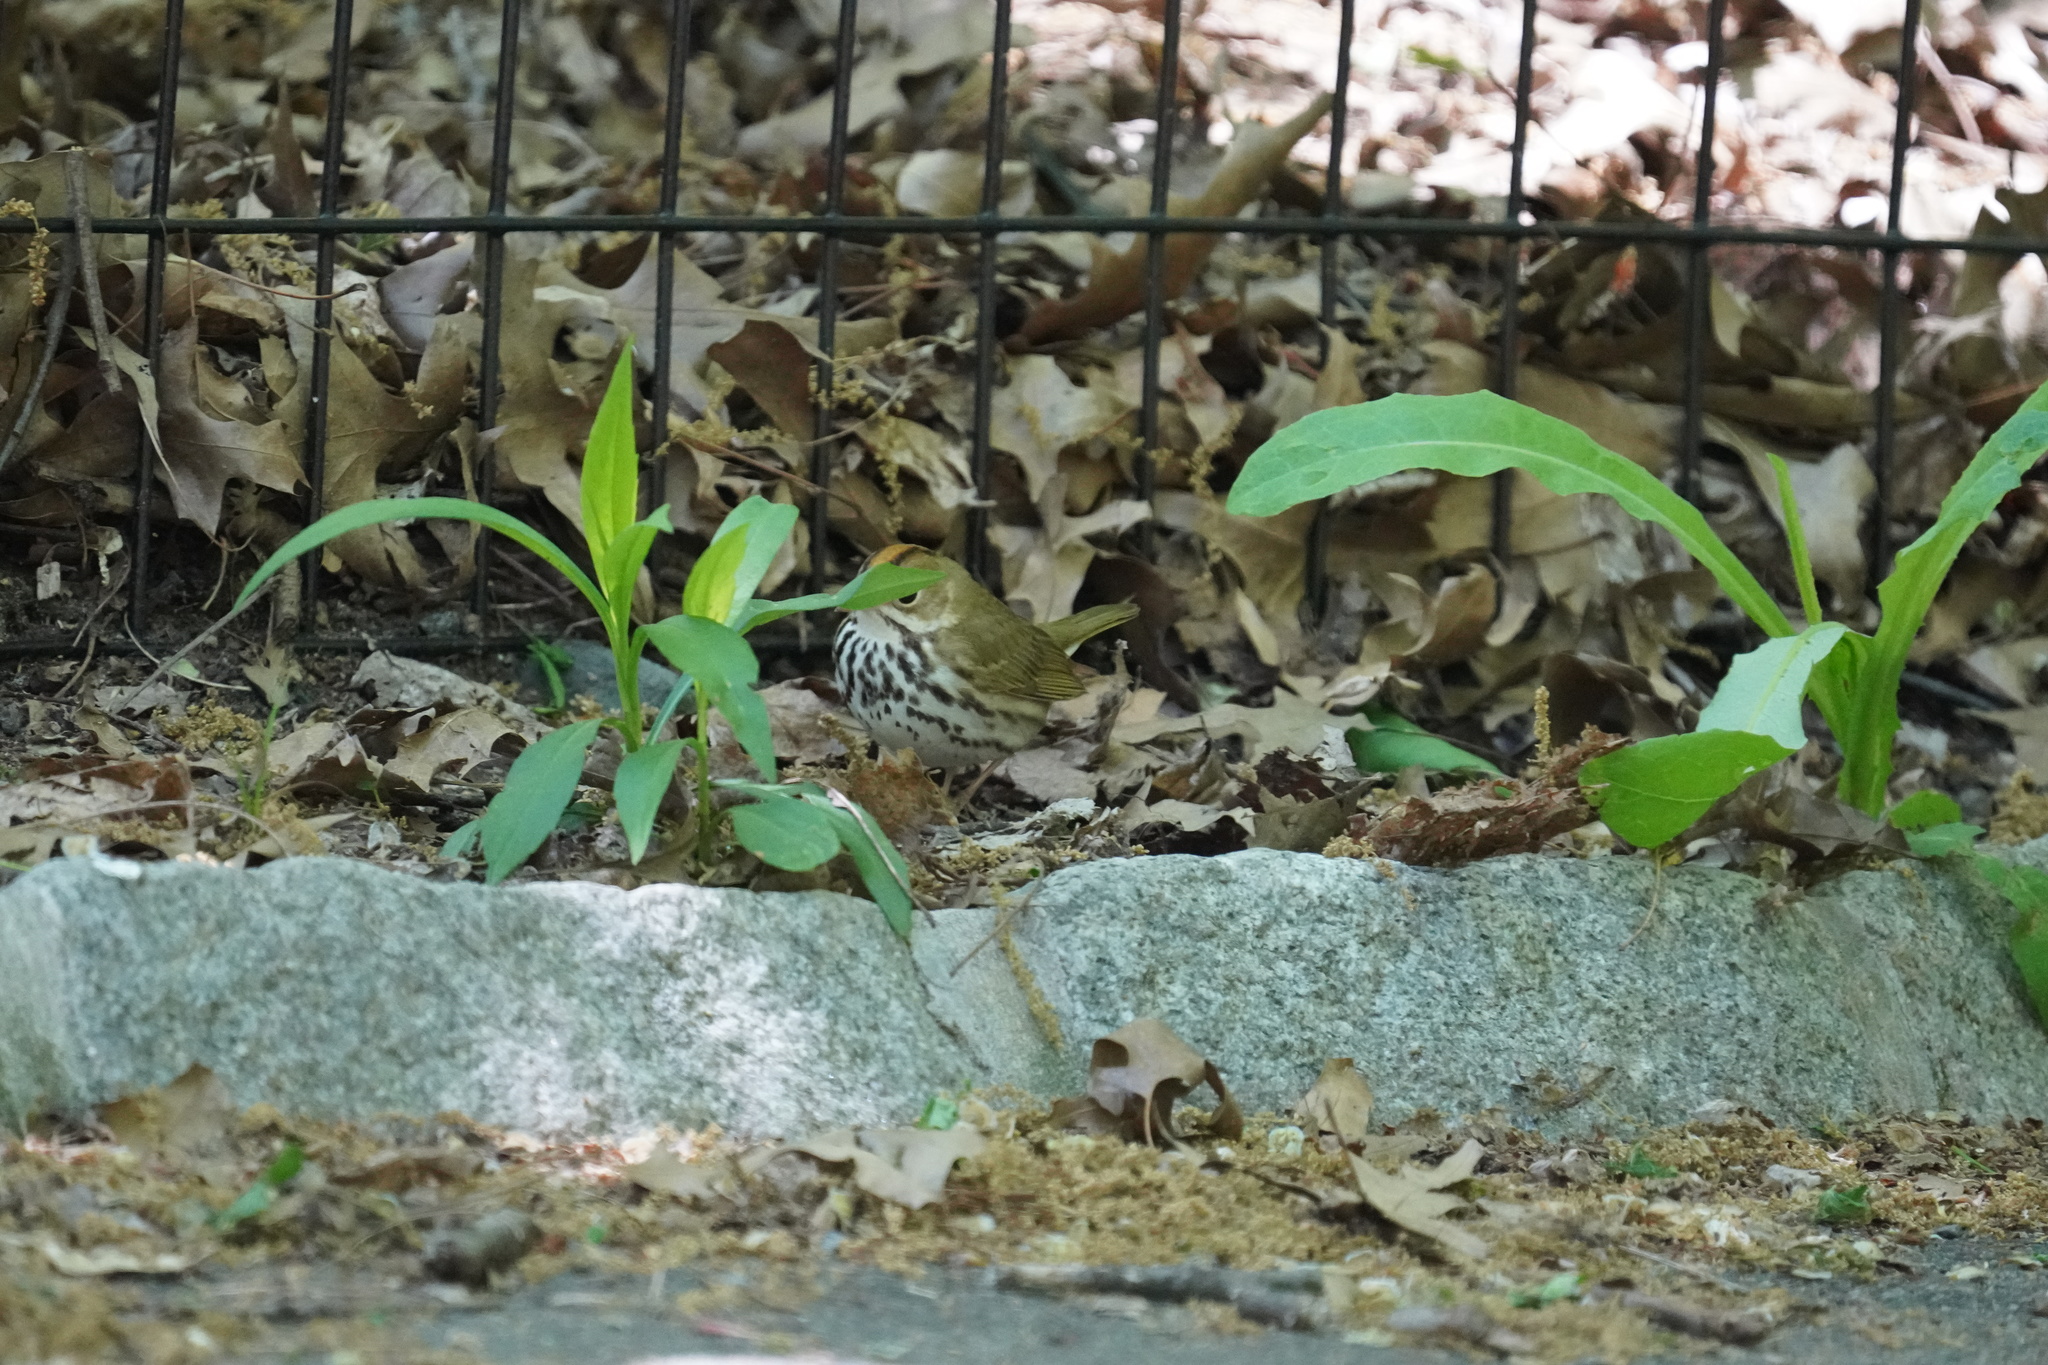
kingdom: Animalia
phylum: Chordata
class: Aves
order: Passeriformes
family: Parulidae
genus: Seiurus
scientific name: Seiurus aurocapilla
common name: Ovenbird
